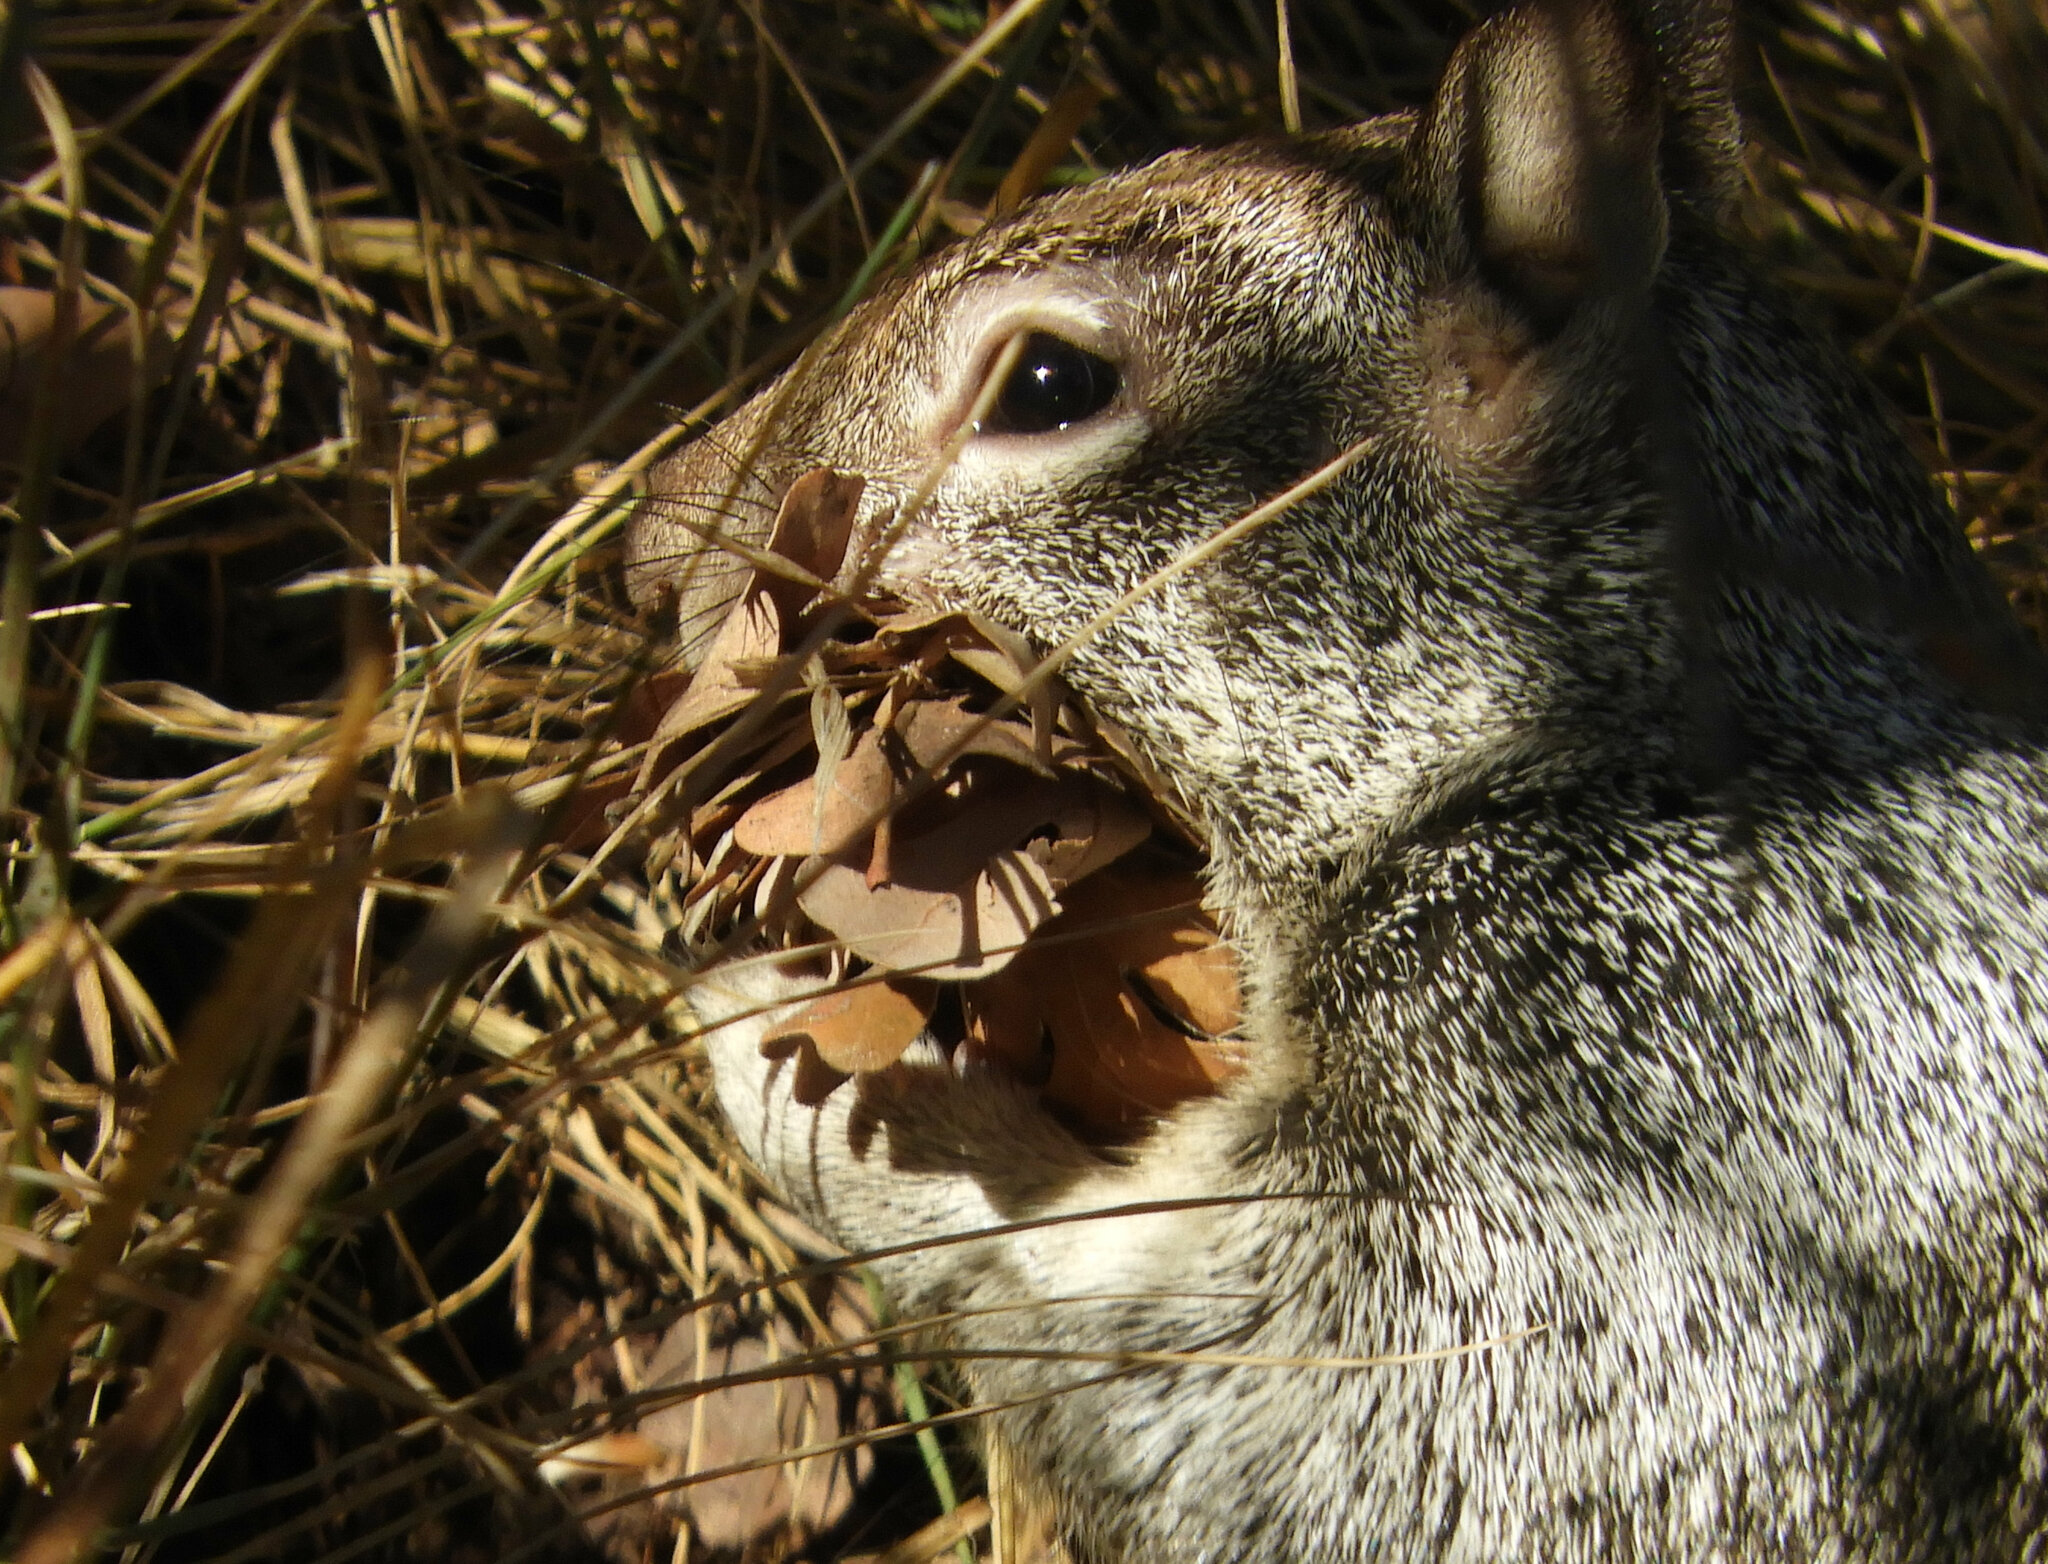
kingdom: Animalia
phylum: Chordata
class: Mammalia
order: Rodentia
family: Sciuridae
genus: Otospermophilus
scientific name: Otospermophilus beecheyi
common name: California ground squirrel
